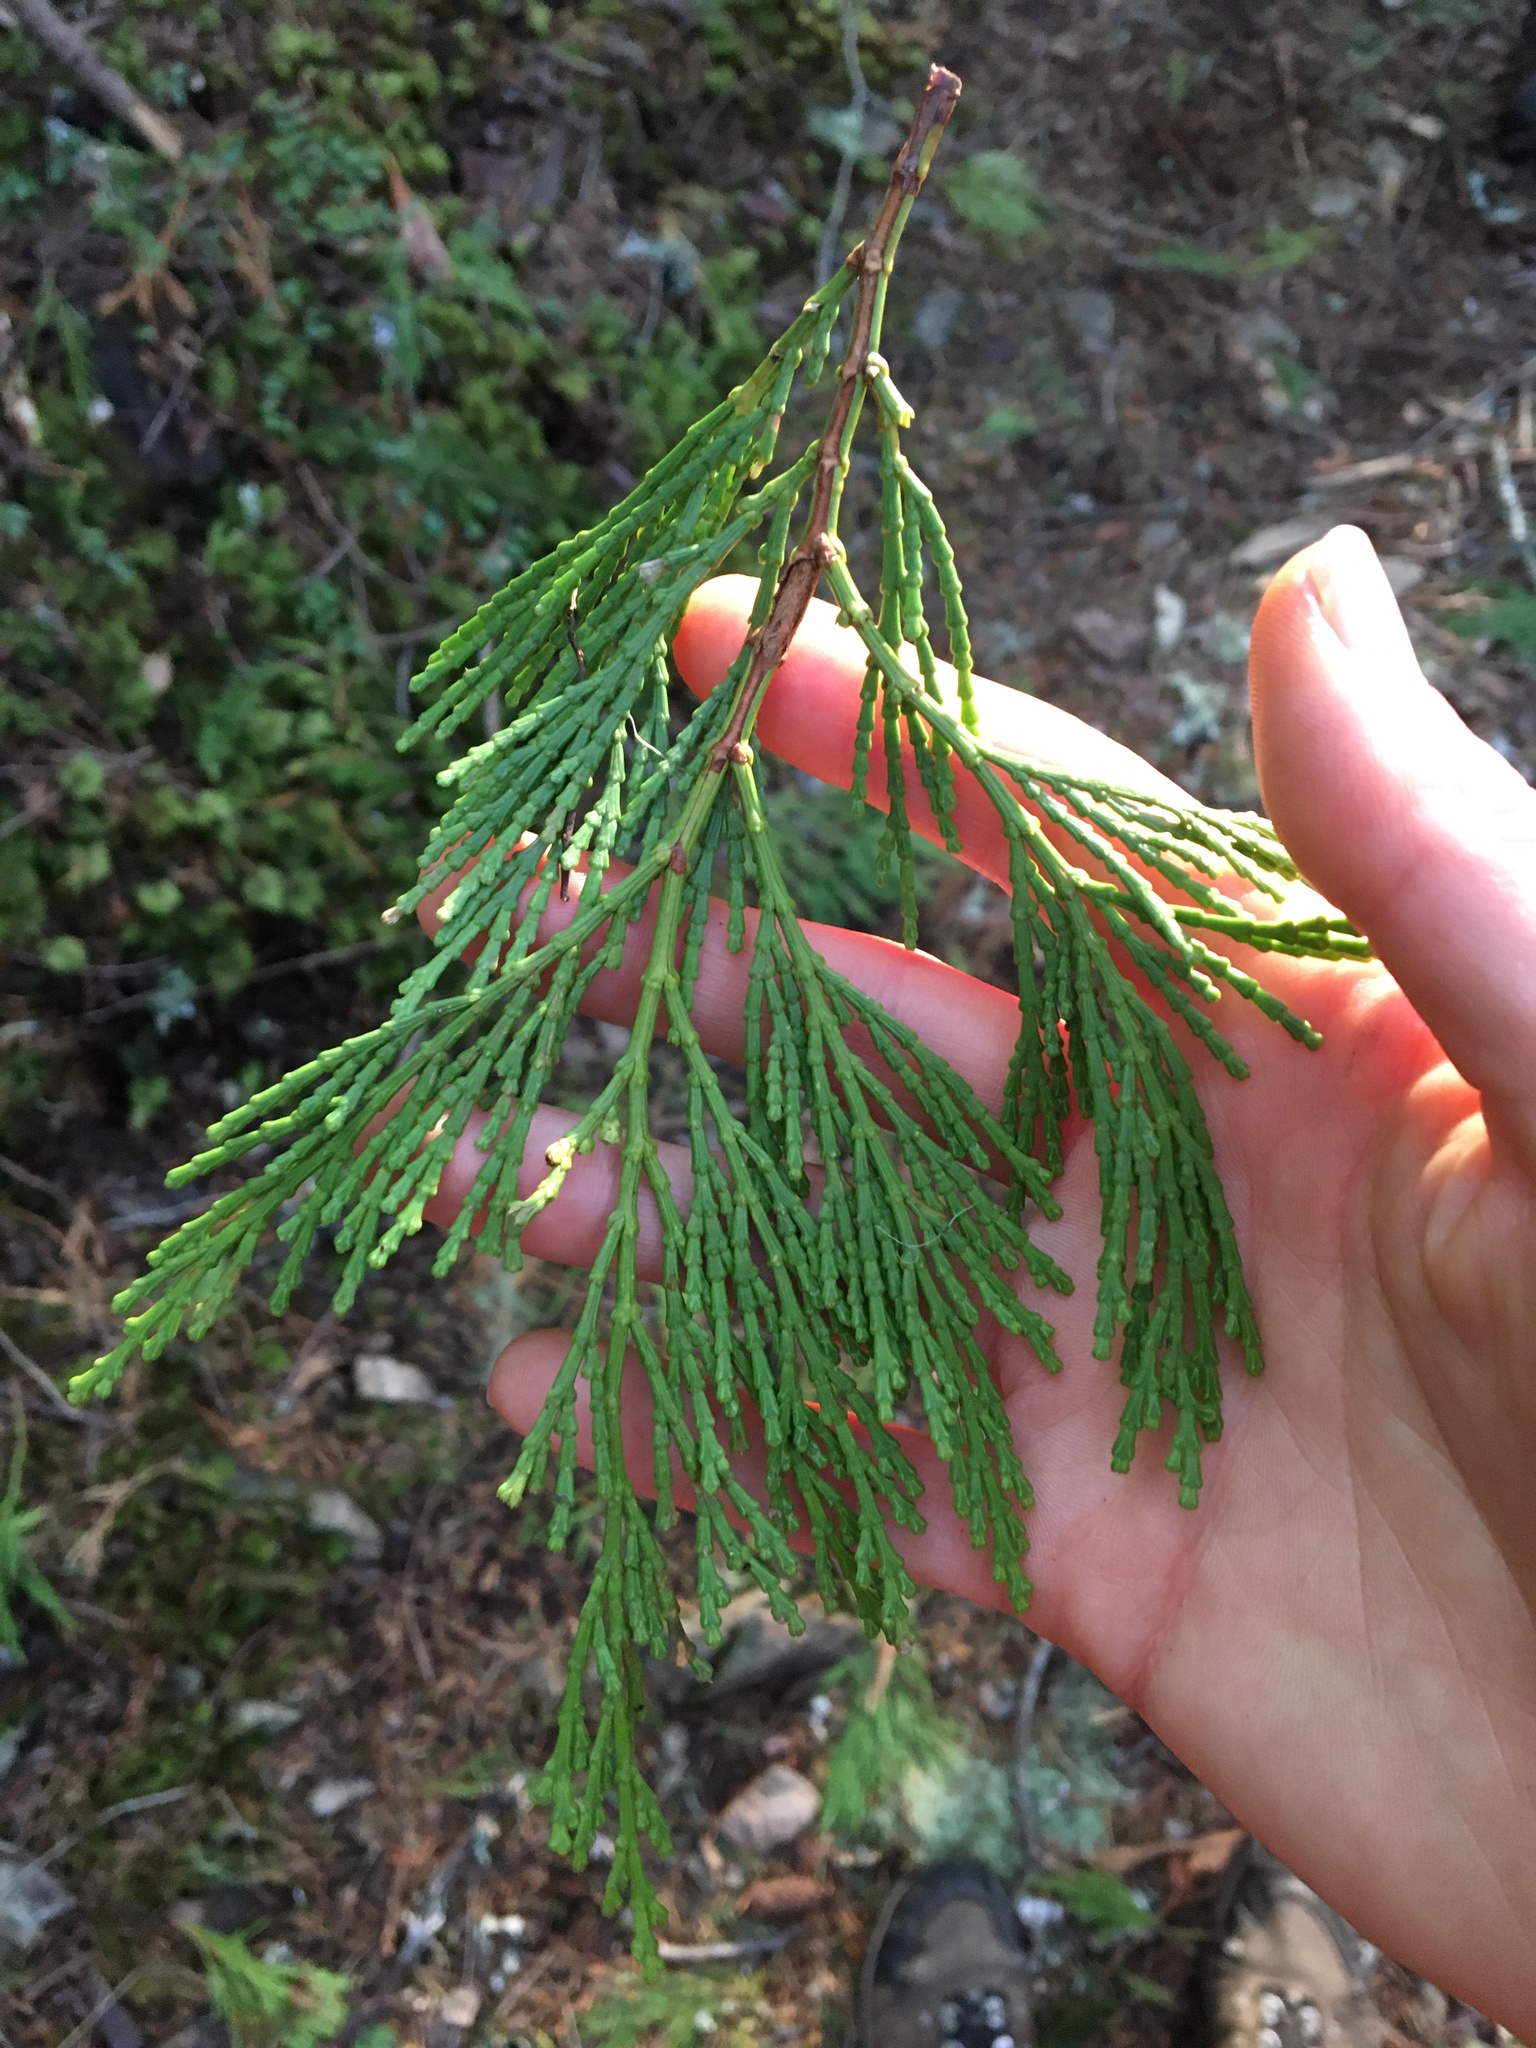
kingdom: Plantae
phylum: Tracheophyta
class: Pinopsida
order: Pinales
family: Cupressaceae
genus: Calocedrus
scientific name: Calocedrus decurrens
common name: Californian incense-cedar
